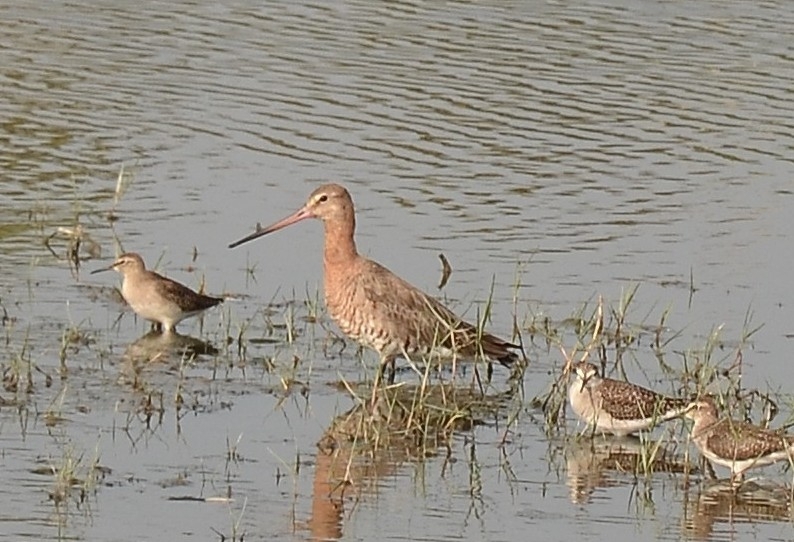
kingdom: Animalia
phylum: Chordata
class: Aves
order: Charadriiformes
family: Scolopacidae
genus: Limosa
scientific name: Limosa limosa
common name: Black-tailed godwit
